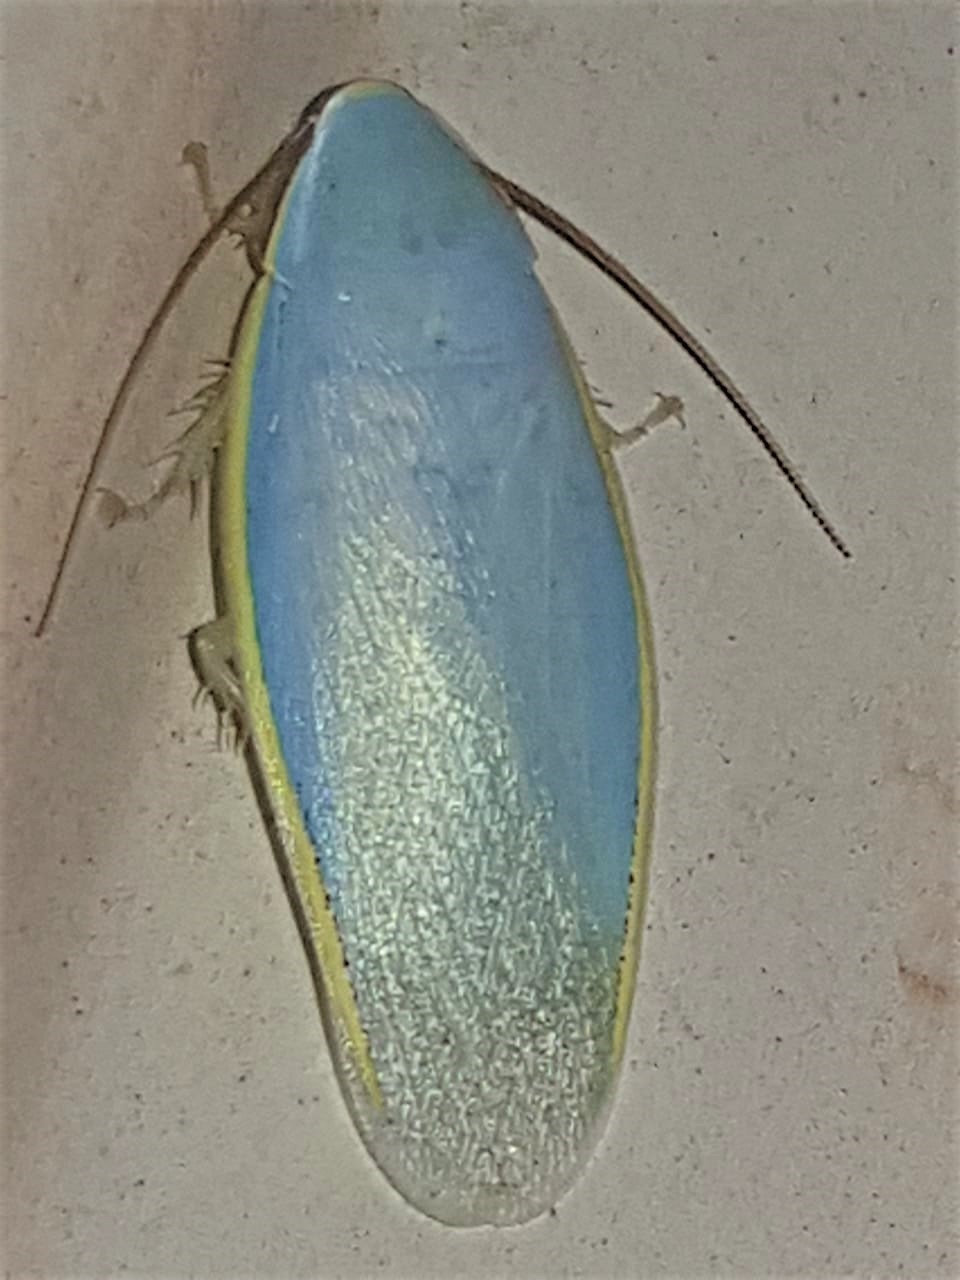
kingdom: Animalia
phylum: Arthropoda
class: Insecta
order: Blattodea
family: Blaberidae
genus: Panchlora
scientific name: Panchlora aurora
